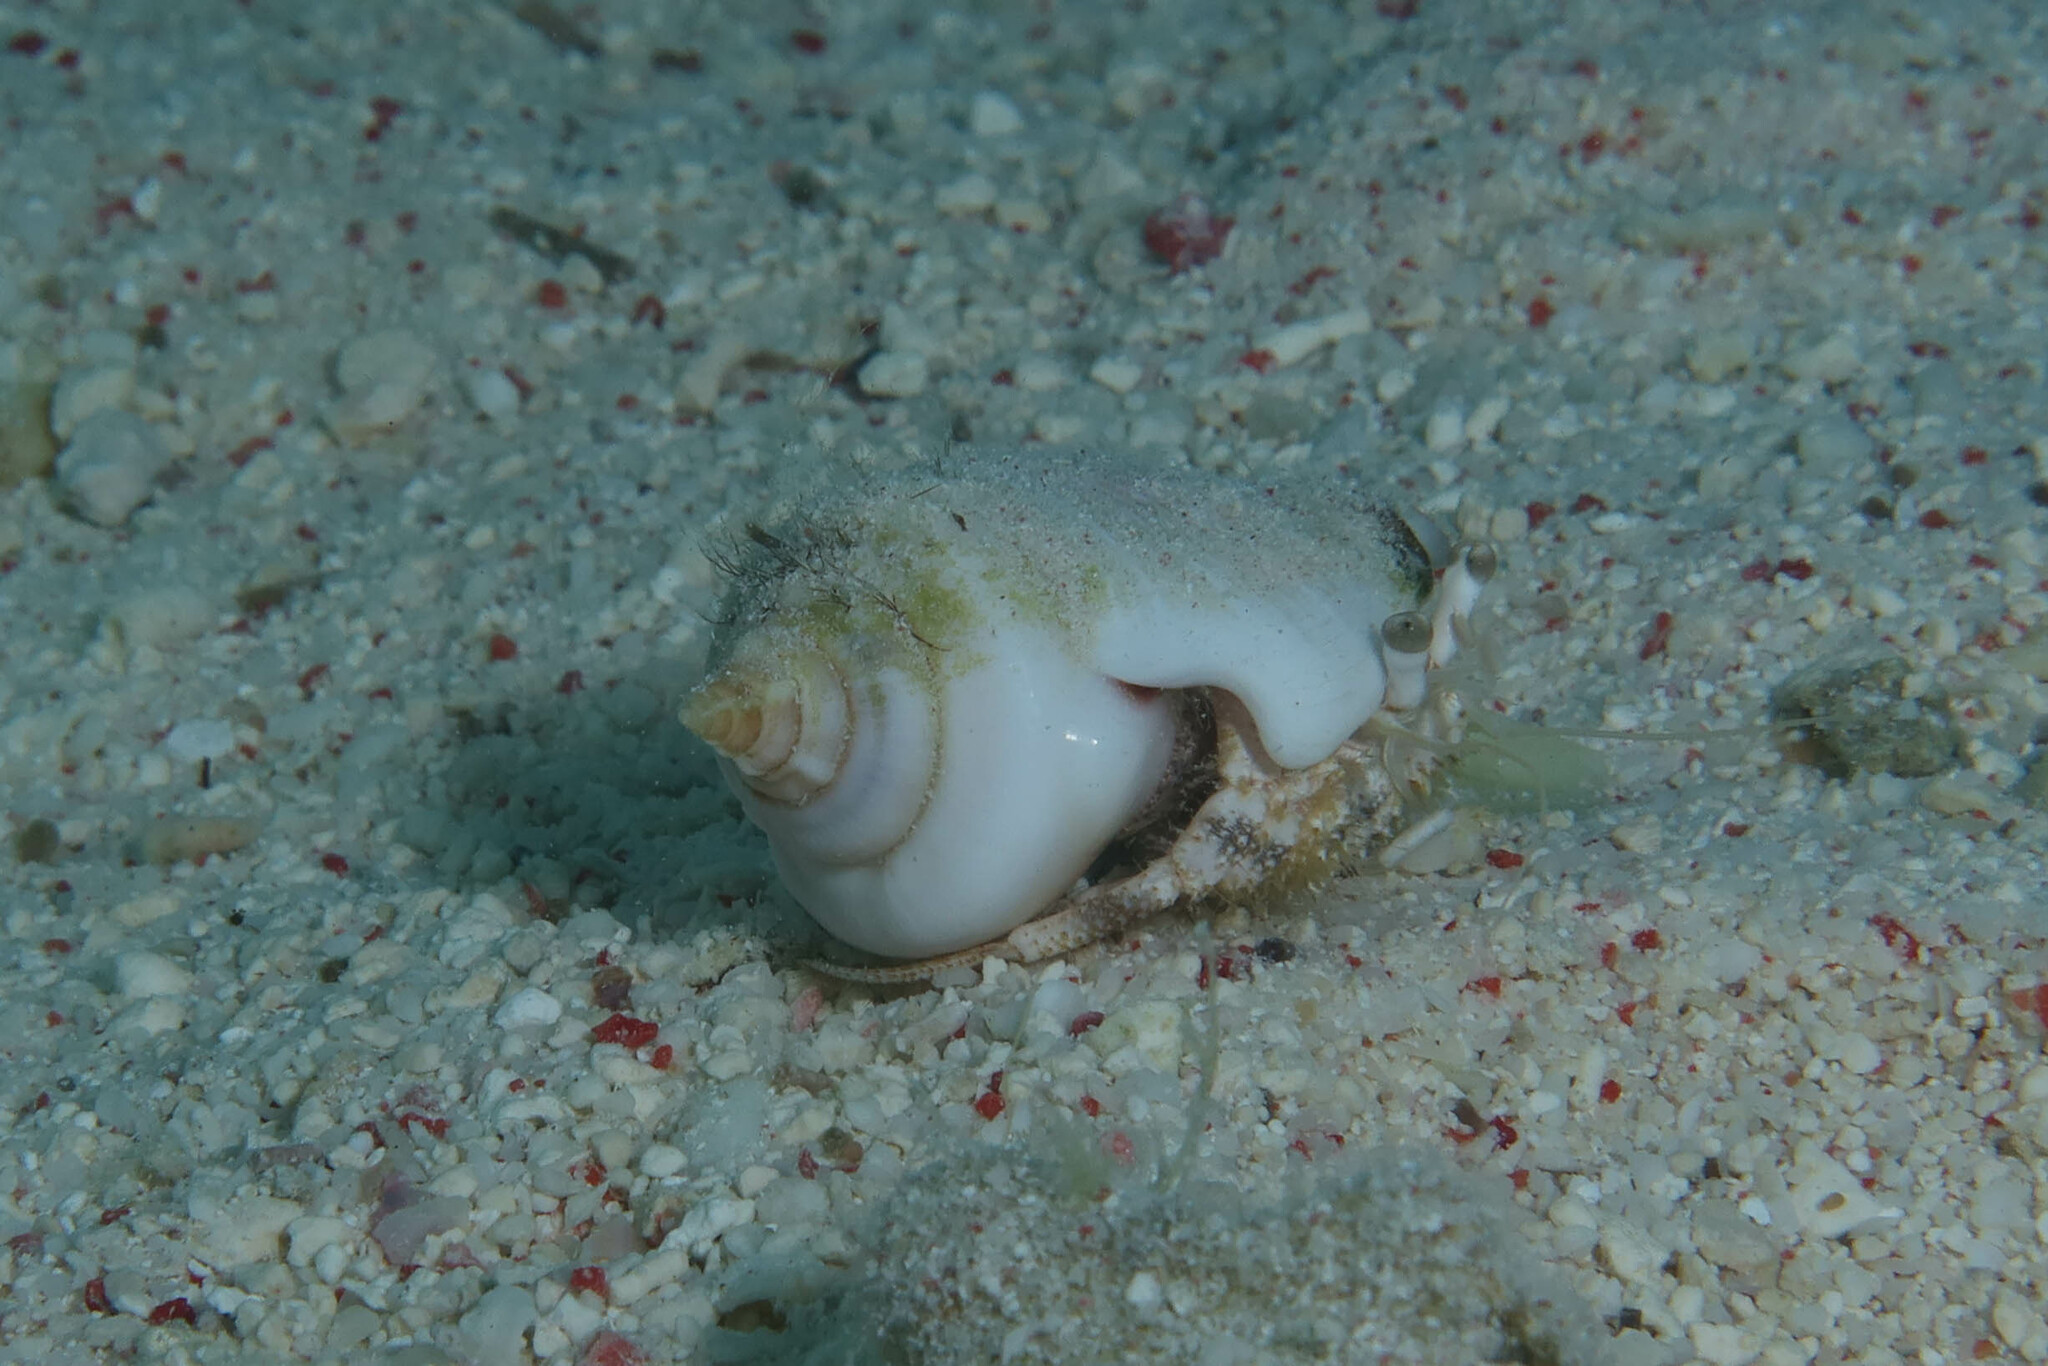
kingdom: Animalia
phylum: Arthropoda
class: Malacostraca
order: Decapoda
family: Diogenidae
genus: Dardanus
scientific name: Dardanus woodmasoni
